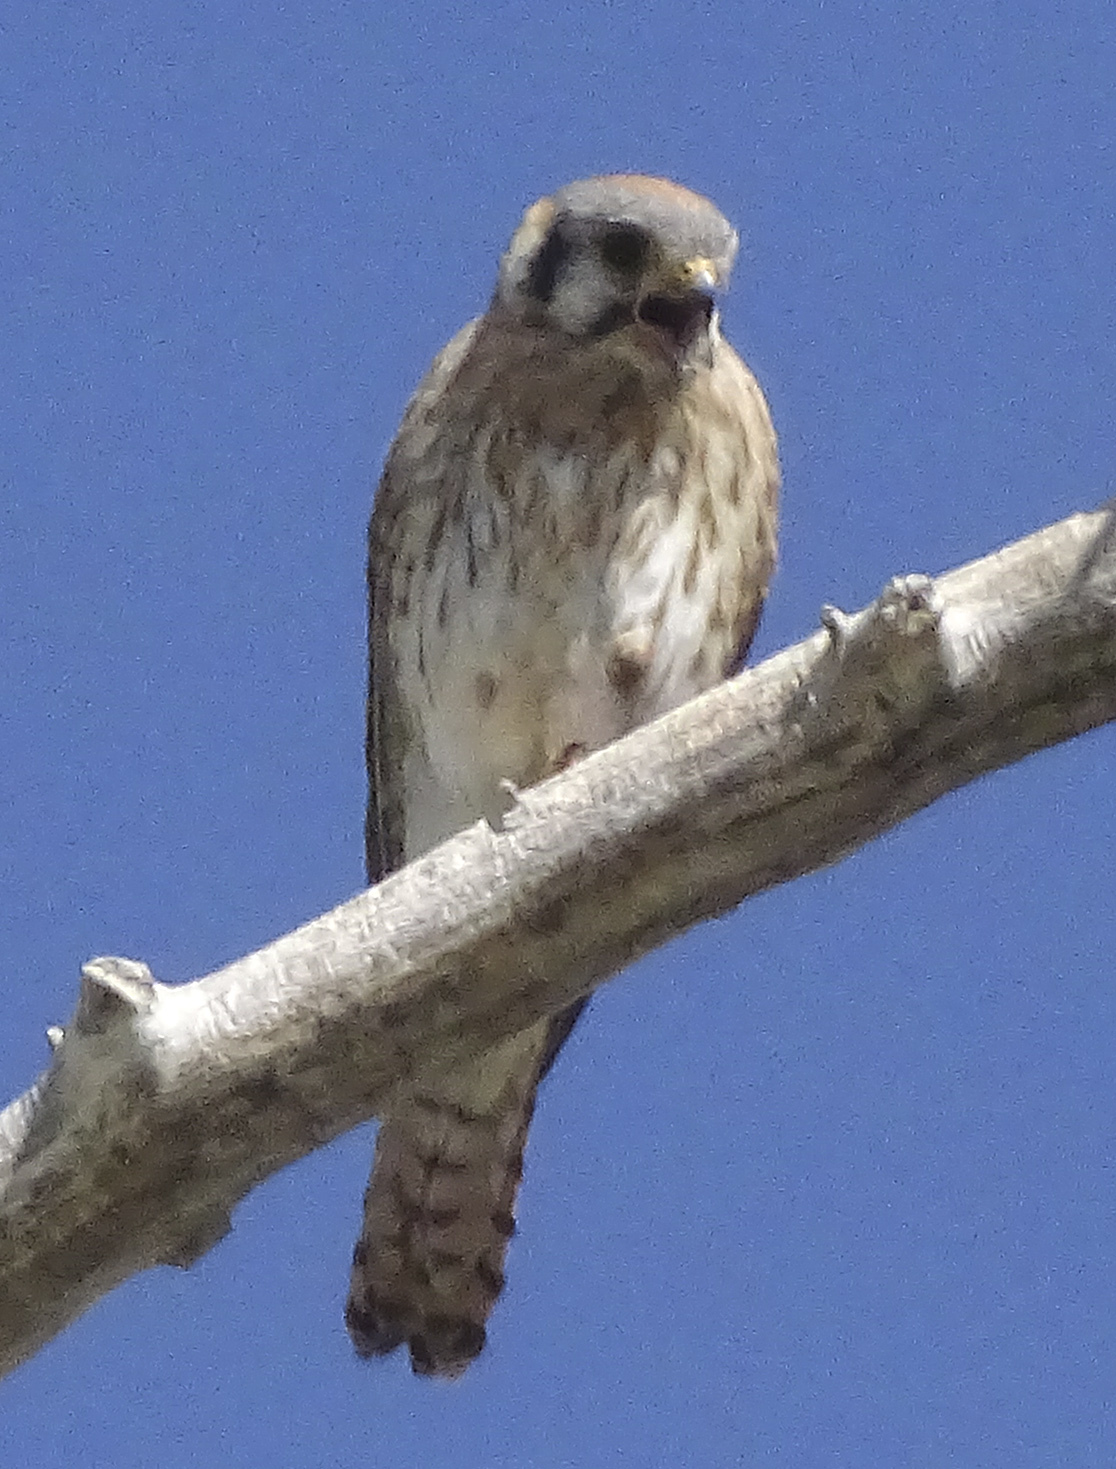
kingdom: Animalia
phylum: Chordata
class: Aves
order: Falconiformes
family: Falconidae
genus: Falco
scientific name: Falco sparverius
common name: American kestrel
